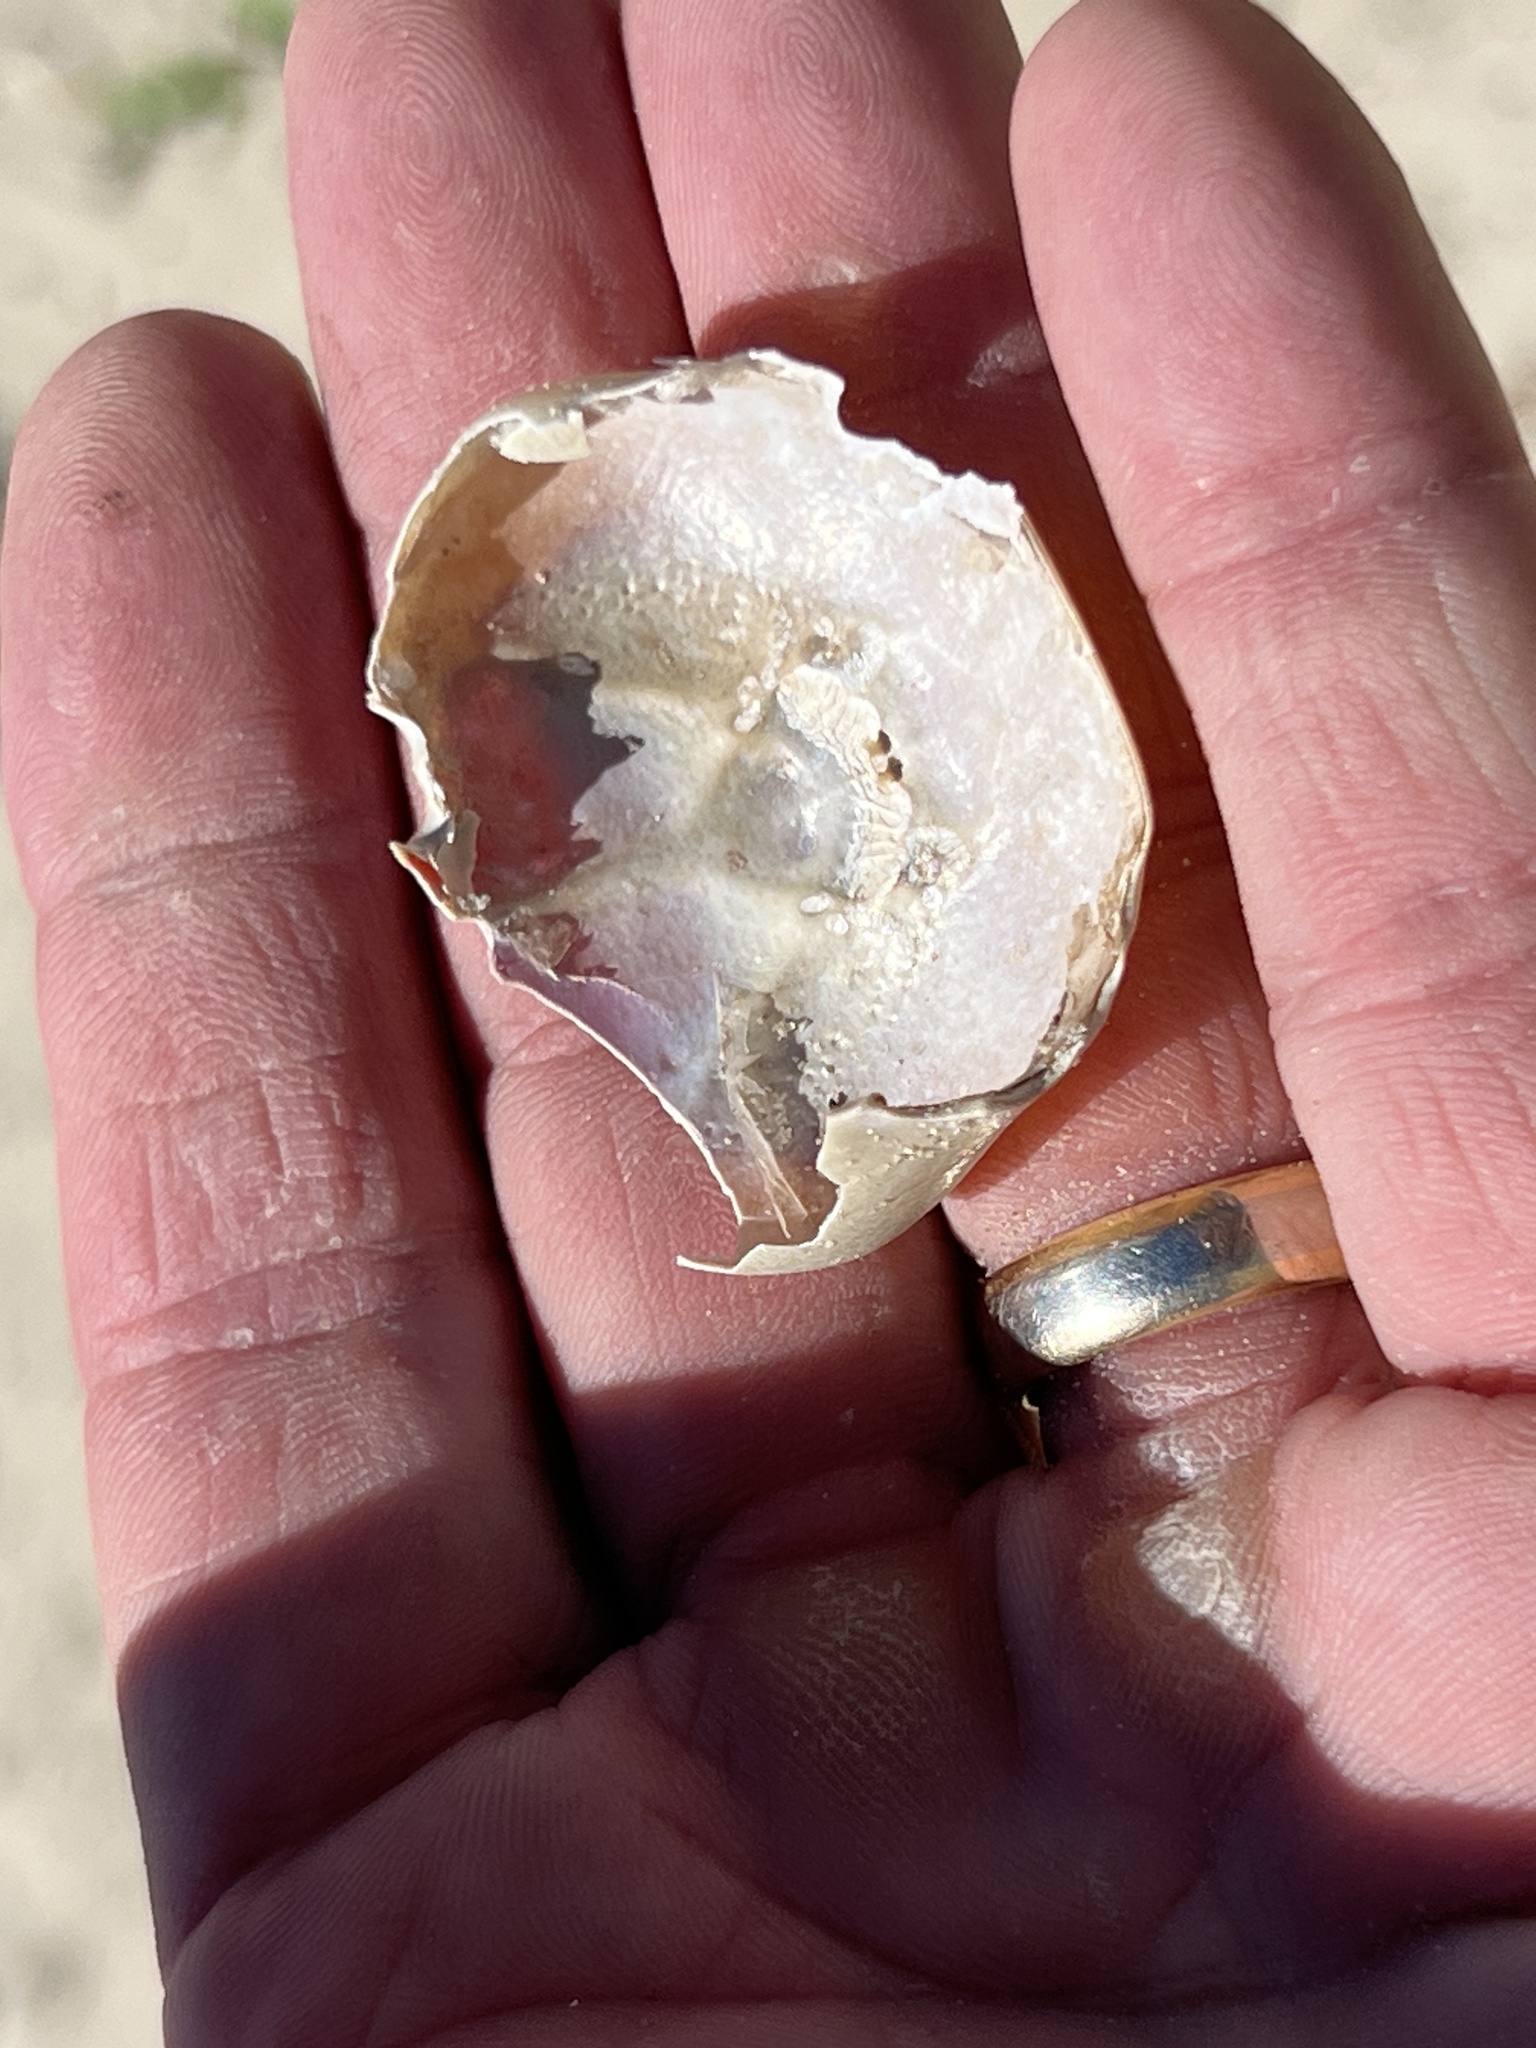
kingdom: Animalia
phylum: Arthropoda
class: Malacostraca
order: Decapoda
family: Gecarcinidae
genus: Gecarcinus
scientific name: Gecarcinus lateralis
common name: Bermuda land crab
